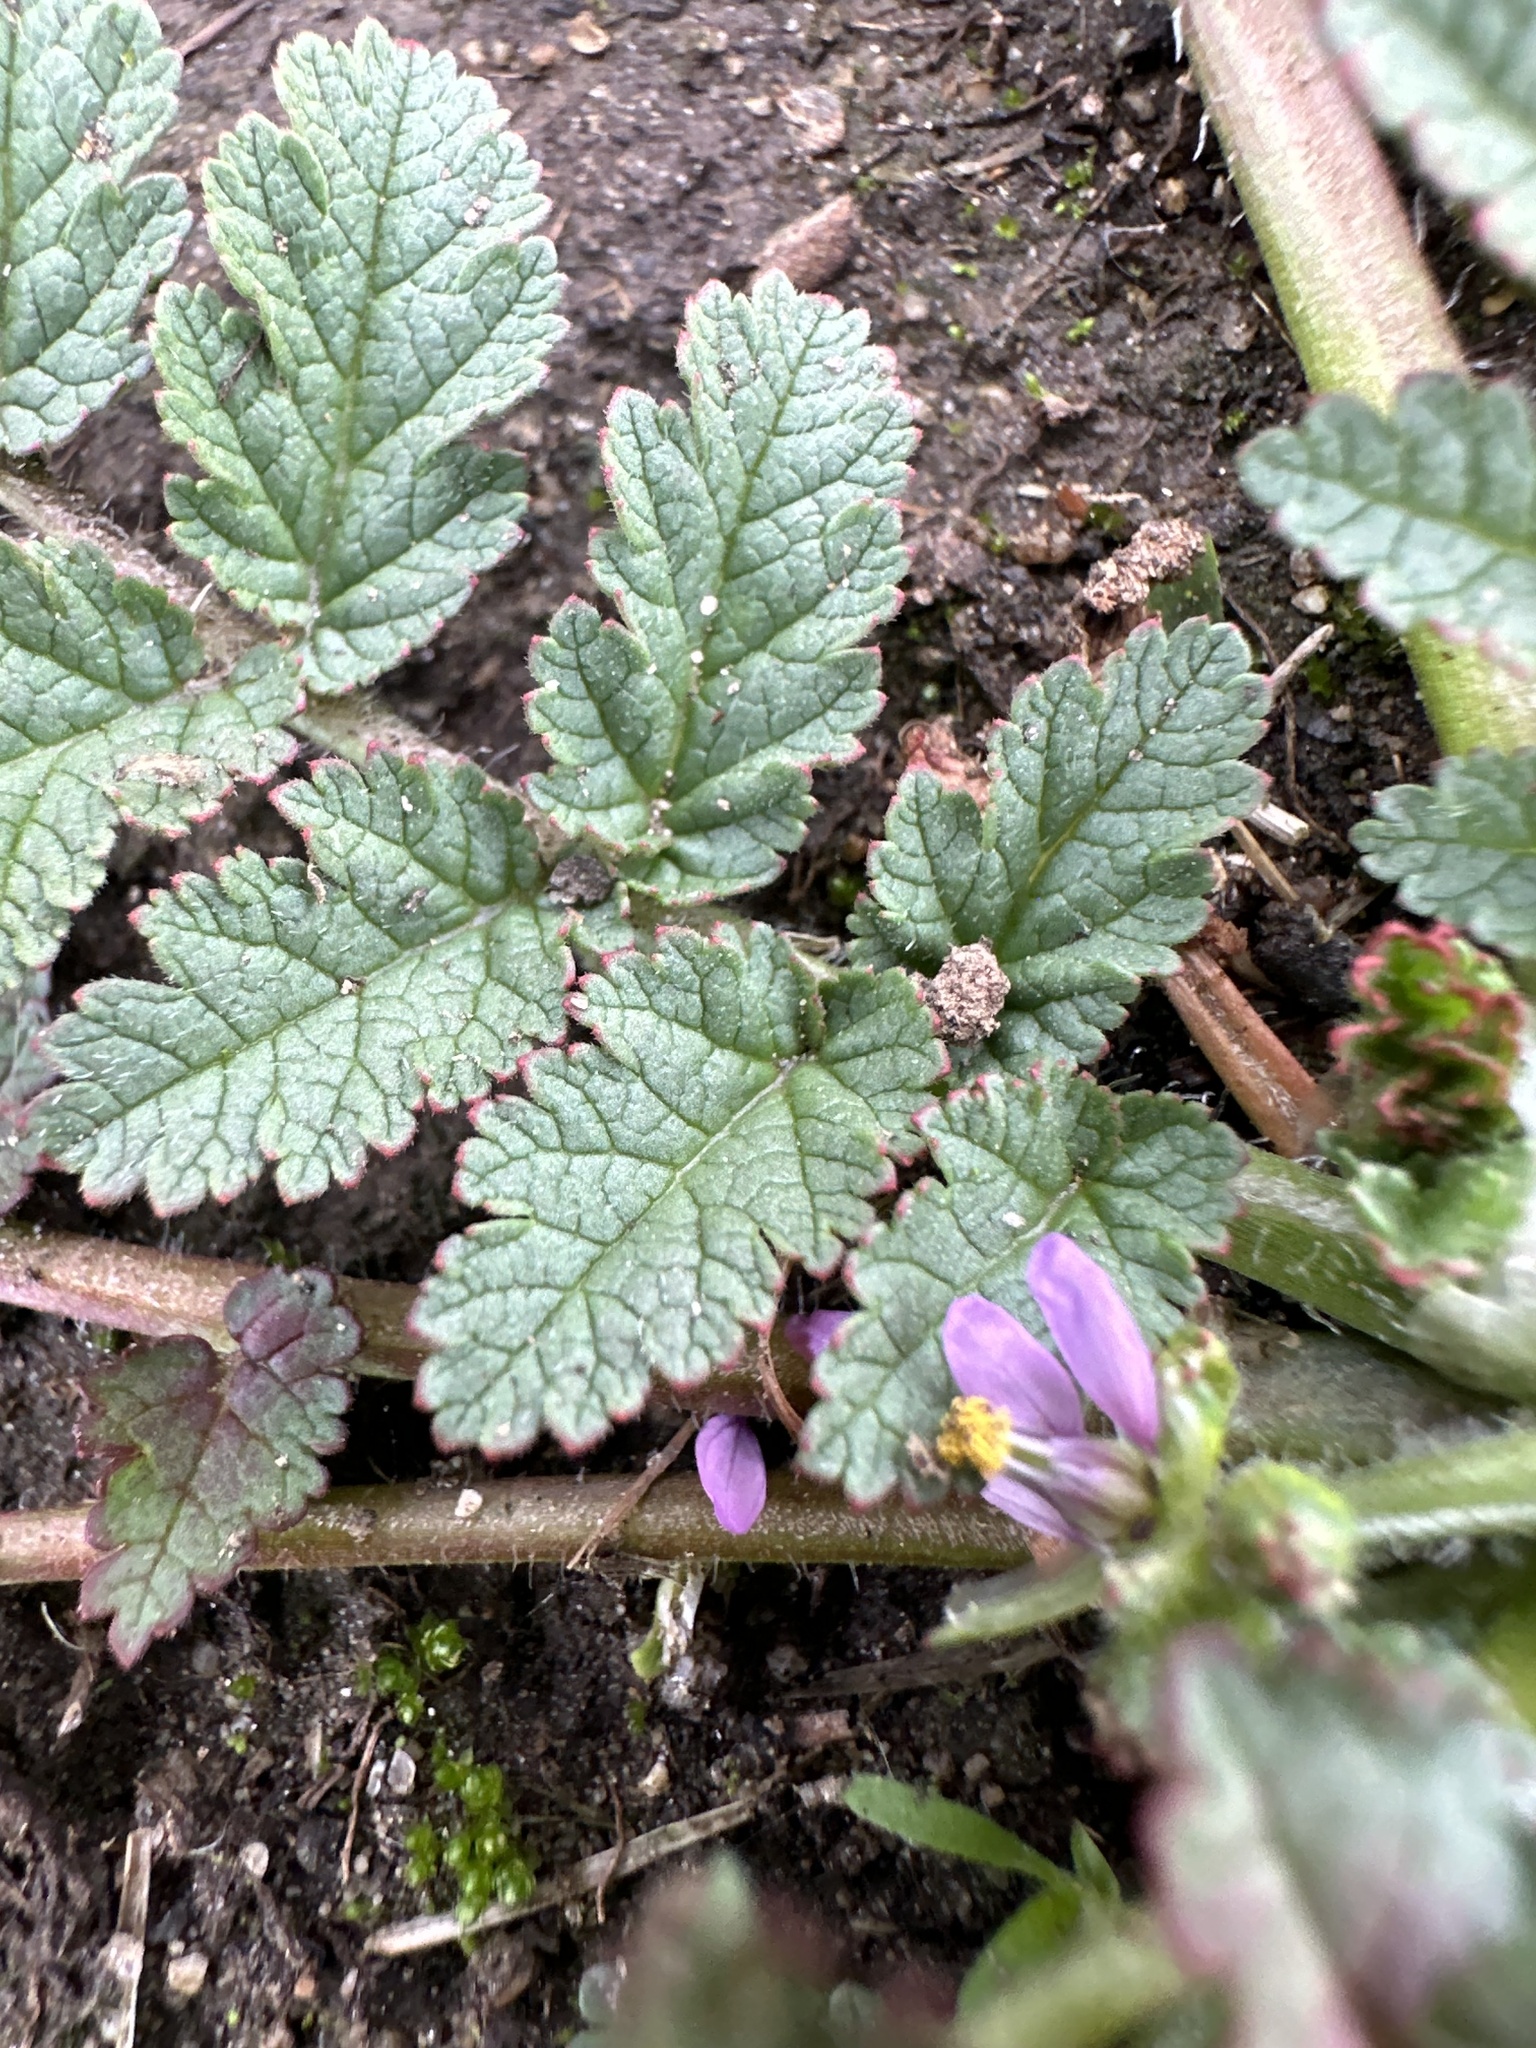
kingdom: Plantae
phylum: Tracheophyta
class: Magnoliopsida
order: Geraniales
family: Geraniaceae
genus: Erodium
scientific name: Erodium moschatum
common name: Musk stork's-bill
